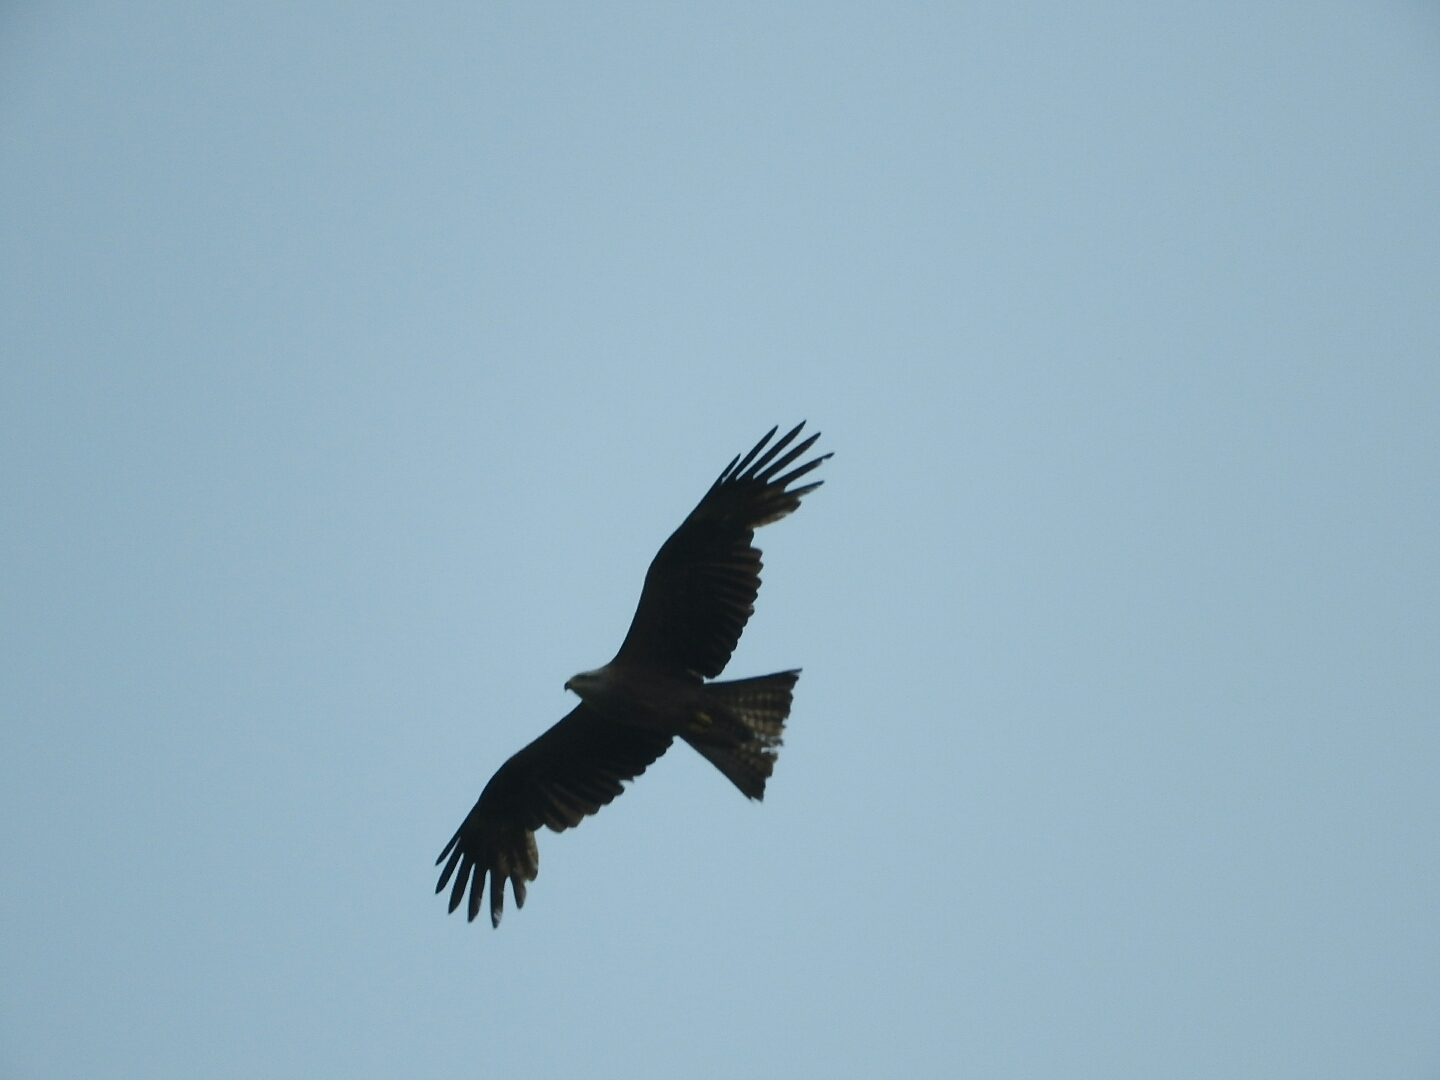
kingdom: Animalia
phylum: Chordata
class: Aves
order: Accipitriformes
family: Accipitridae
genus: Milvus
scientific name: Milvus migrans
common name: Black kite
